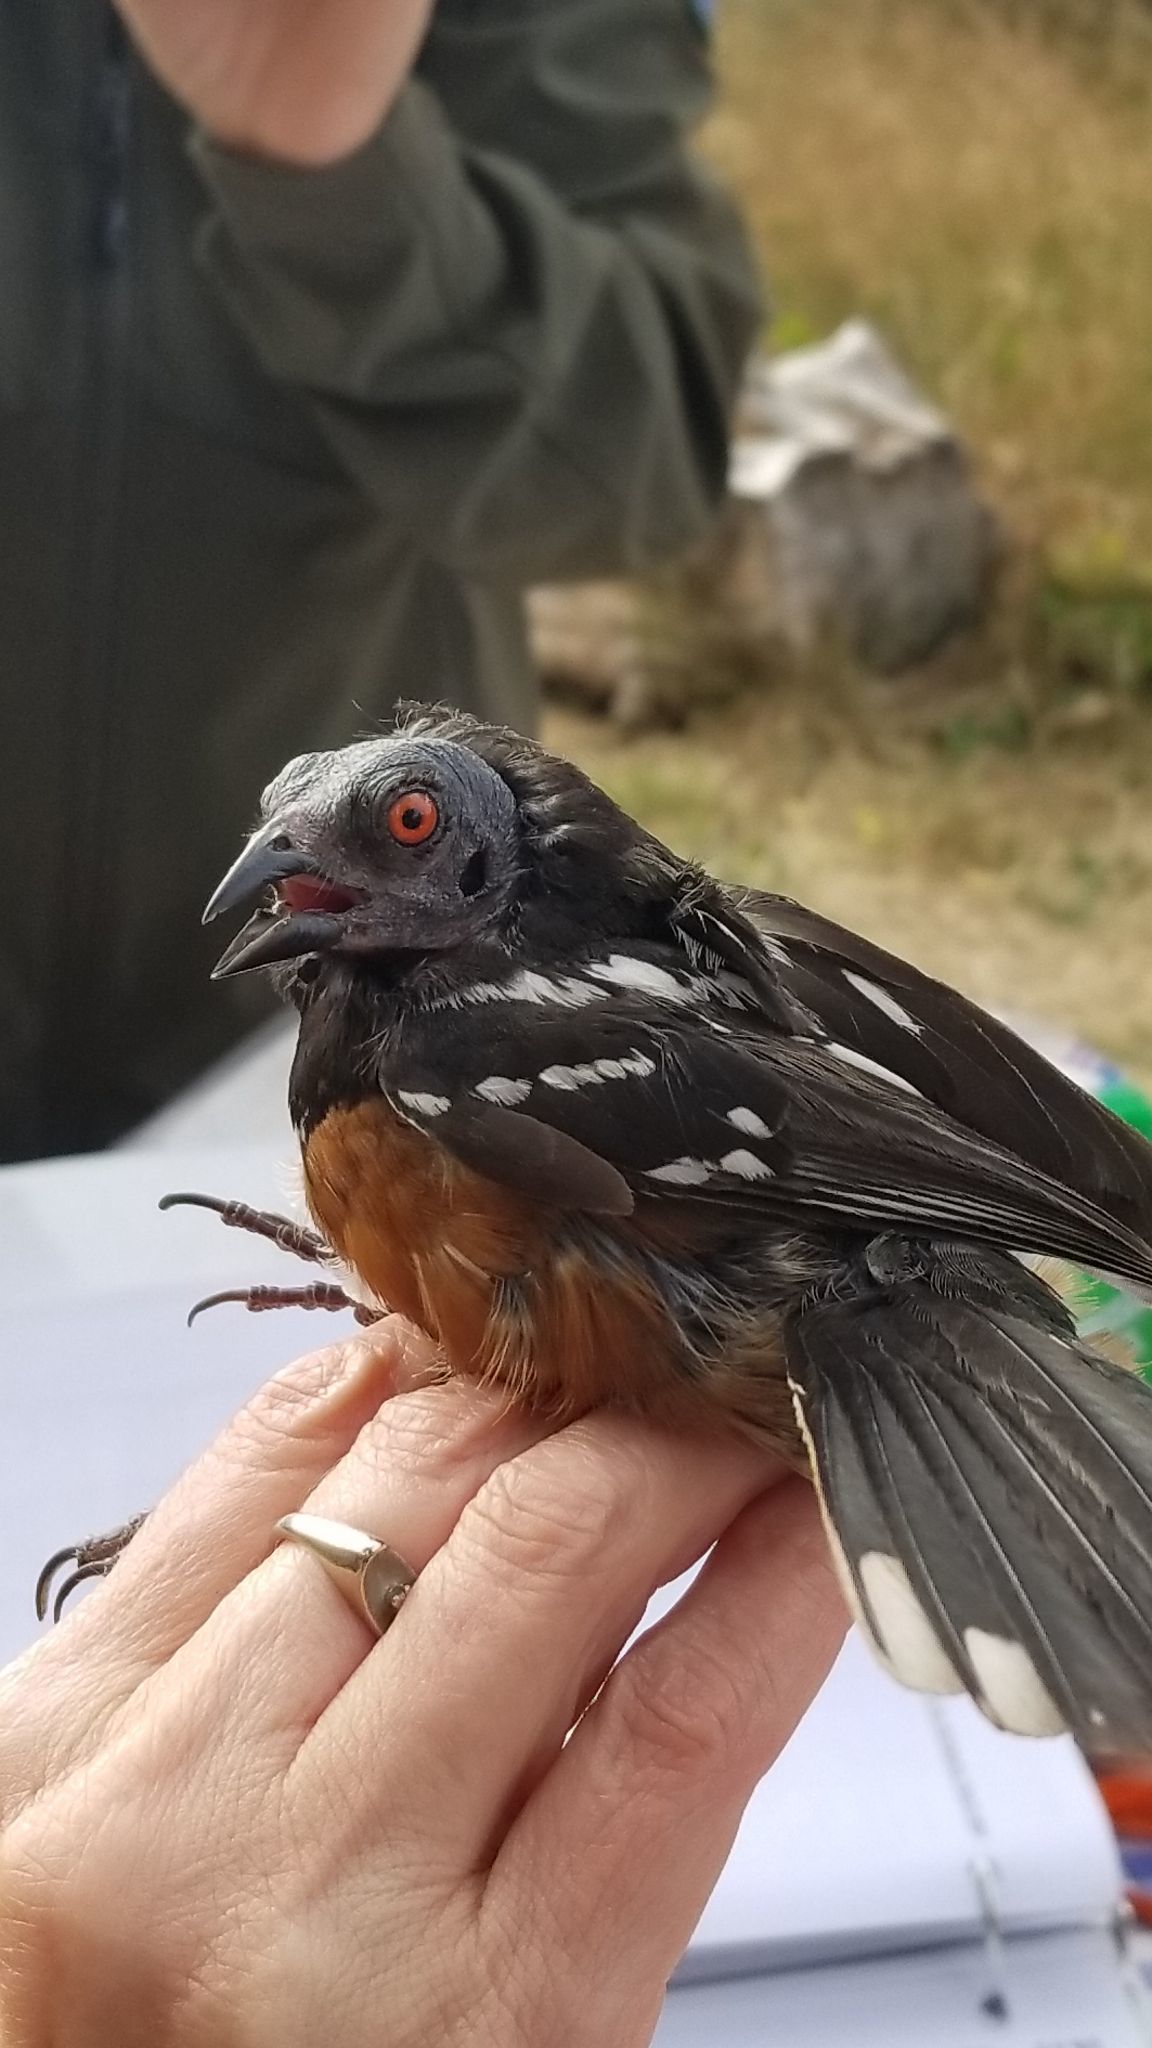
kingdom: Animalia
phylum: Chordata
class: Aves
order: Passeriformes
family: Passerellidae
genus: Pipilo
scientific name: Pipilo maculatus
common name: Spotted towhee
